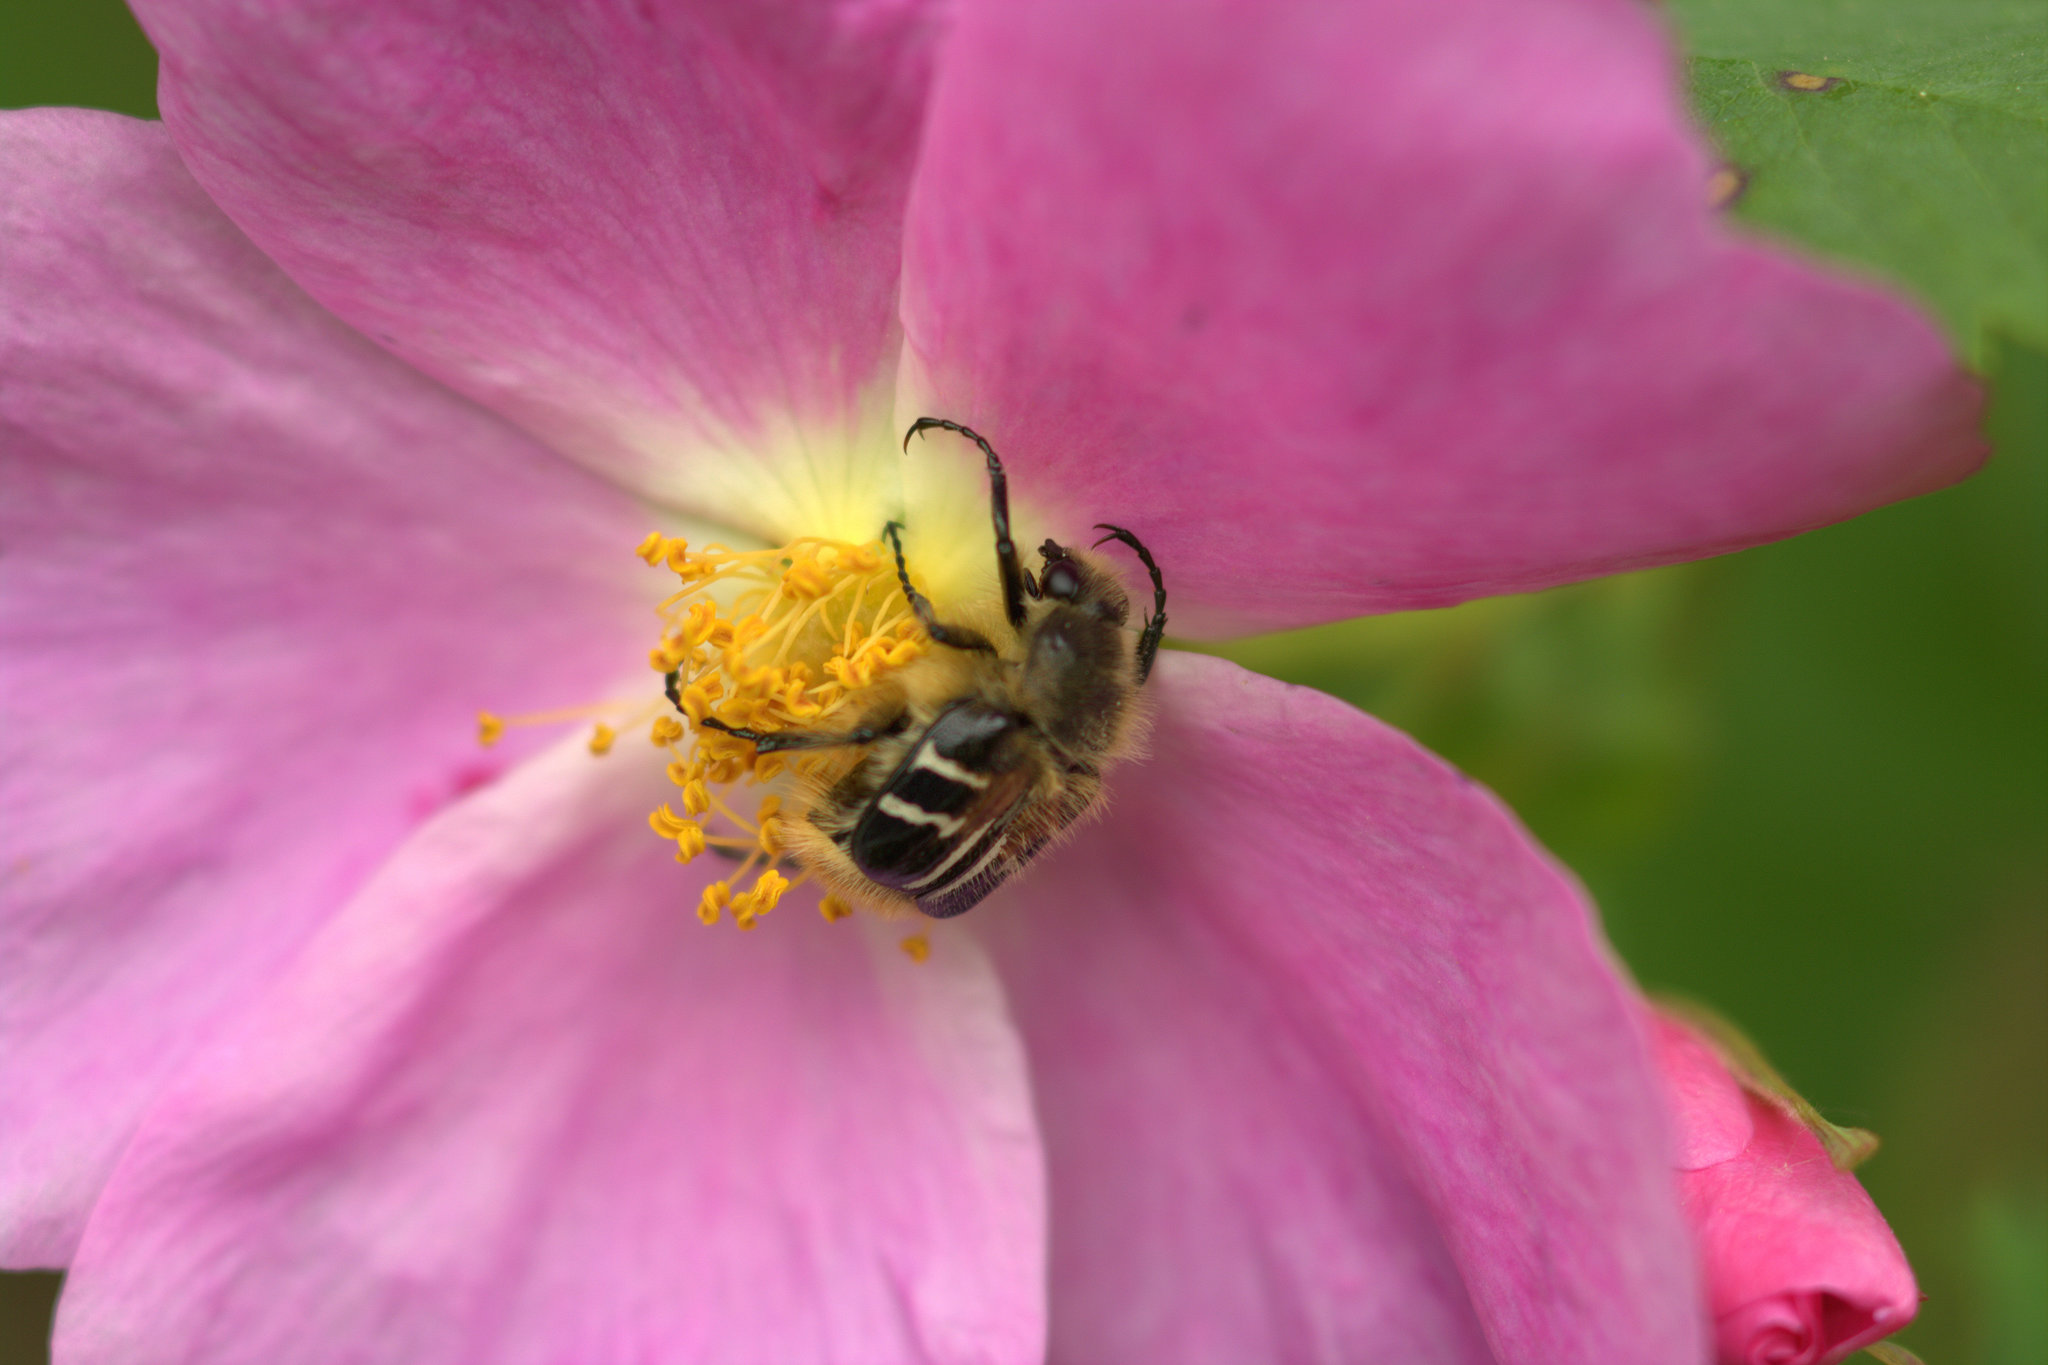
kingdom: Animalia
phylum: Arthropoda
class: Insecta
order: Coleoptera
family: Scarabaeidae
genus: Trichiotinus
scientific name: Trichiotinus assimilis
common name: Bee-mimic beetle
